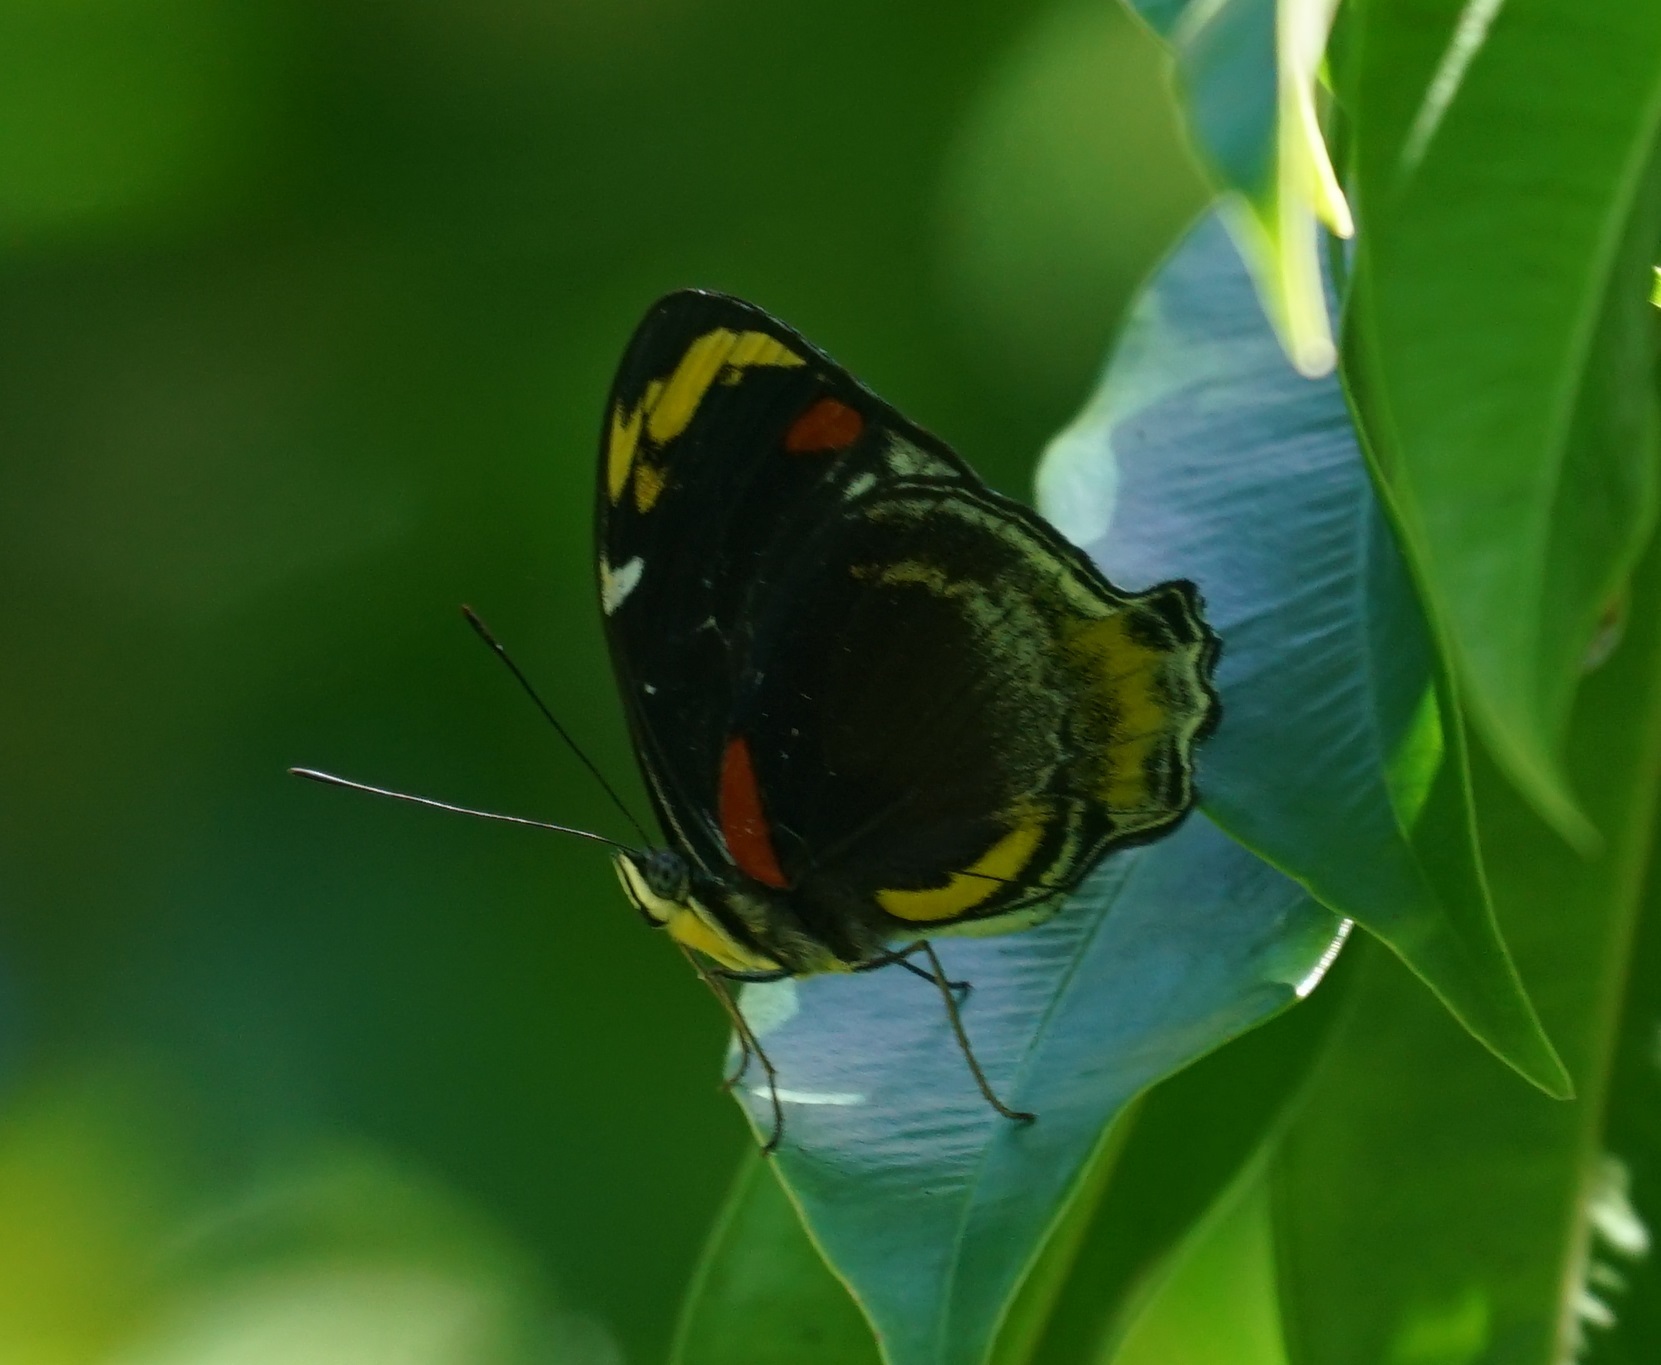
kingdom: Animalia
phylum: Arthropoda
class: Insecta
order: Lepidoptera
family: Nymphalidae
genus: Mynes
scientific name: Mynes geoffroyi
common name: Jezebel nymph
